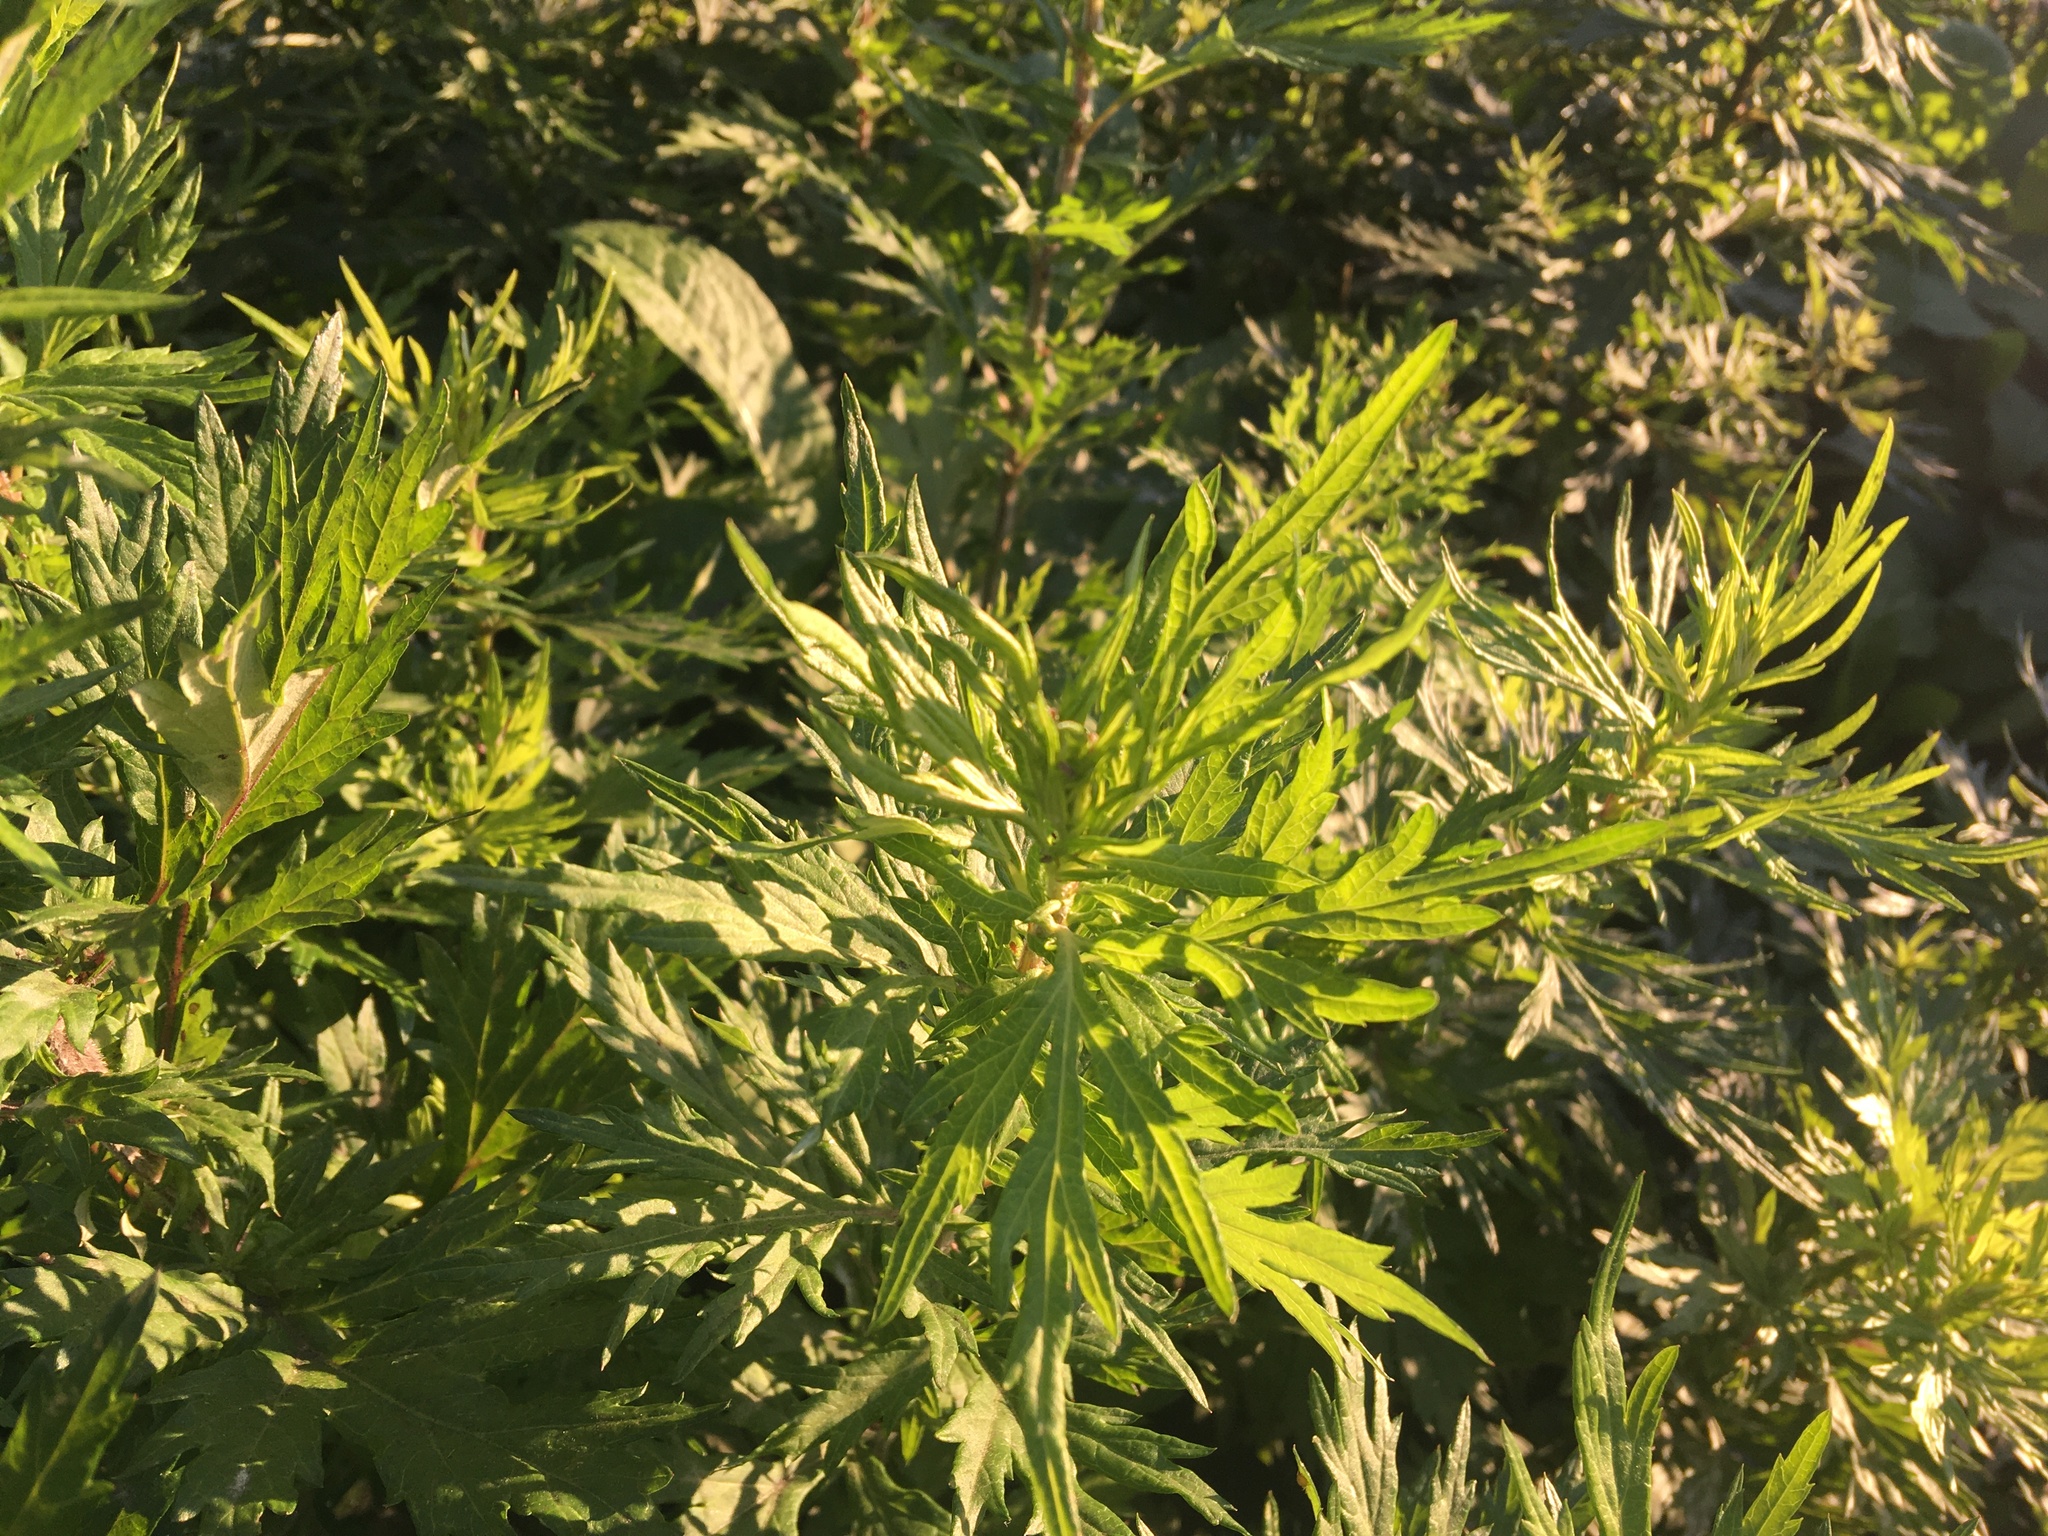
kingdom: Plantae
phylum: Tracheophyta
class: Magnoliopsida
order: Asterales
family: Asteraceae
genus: Artemisia
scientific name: Artemisia vulgaris
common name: Mugwort
